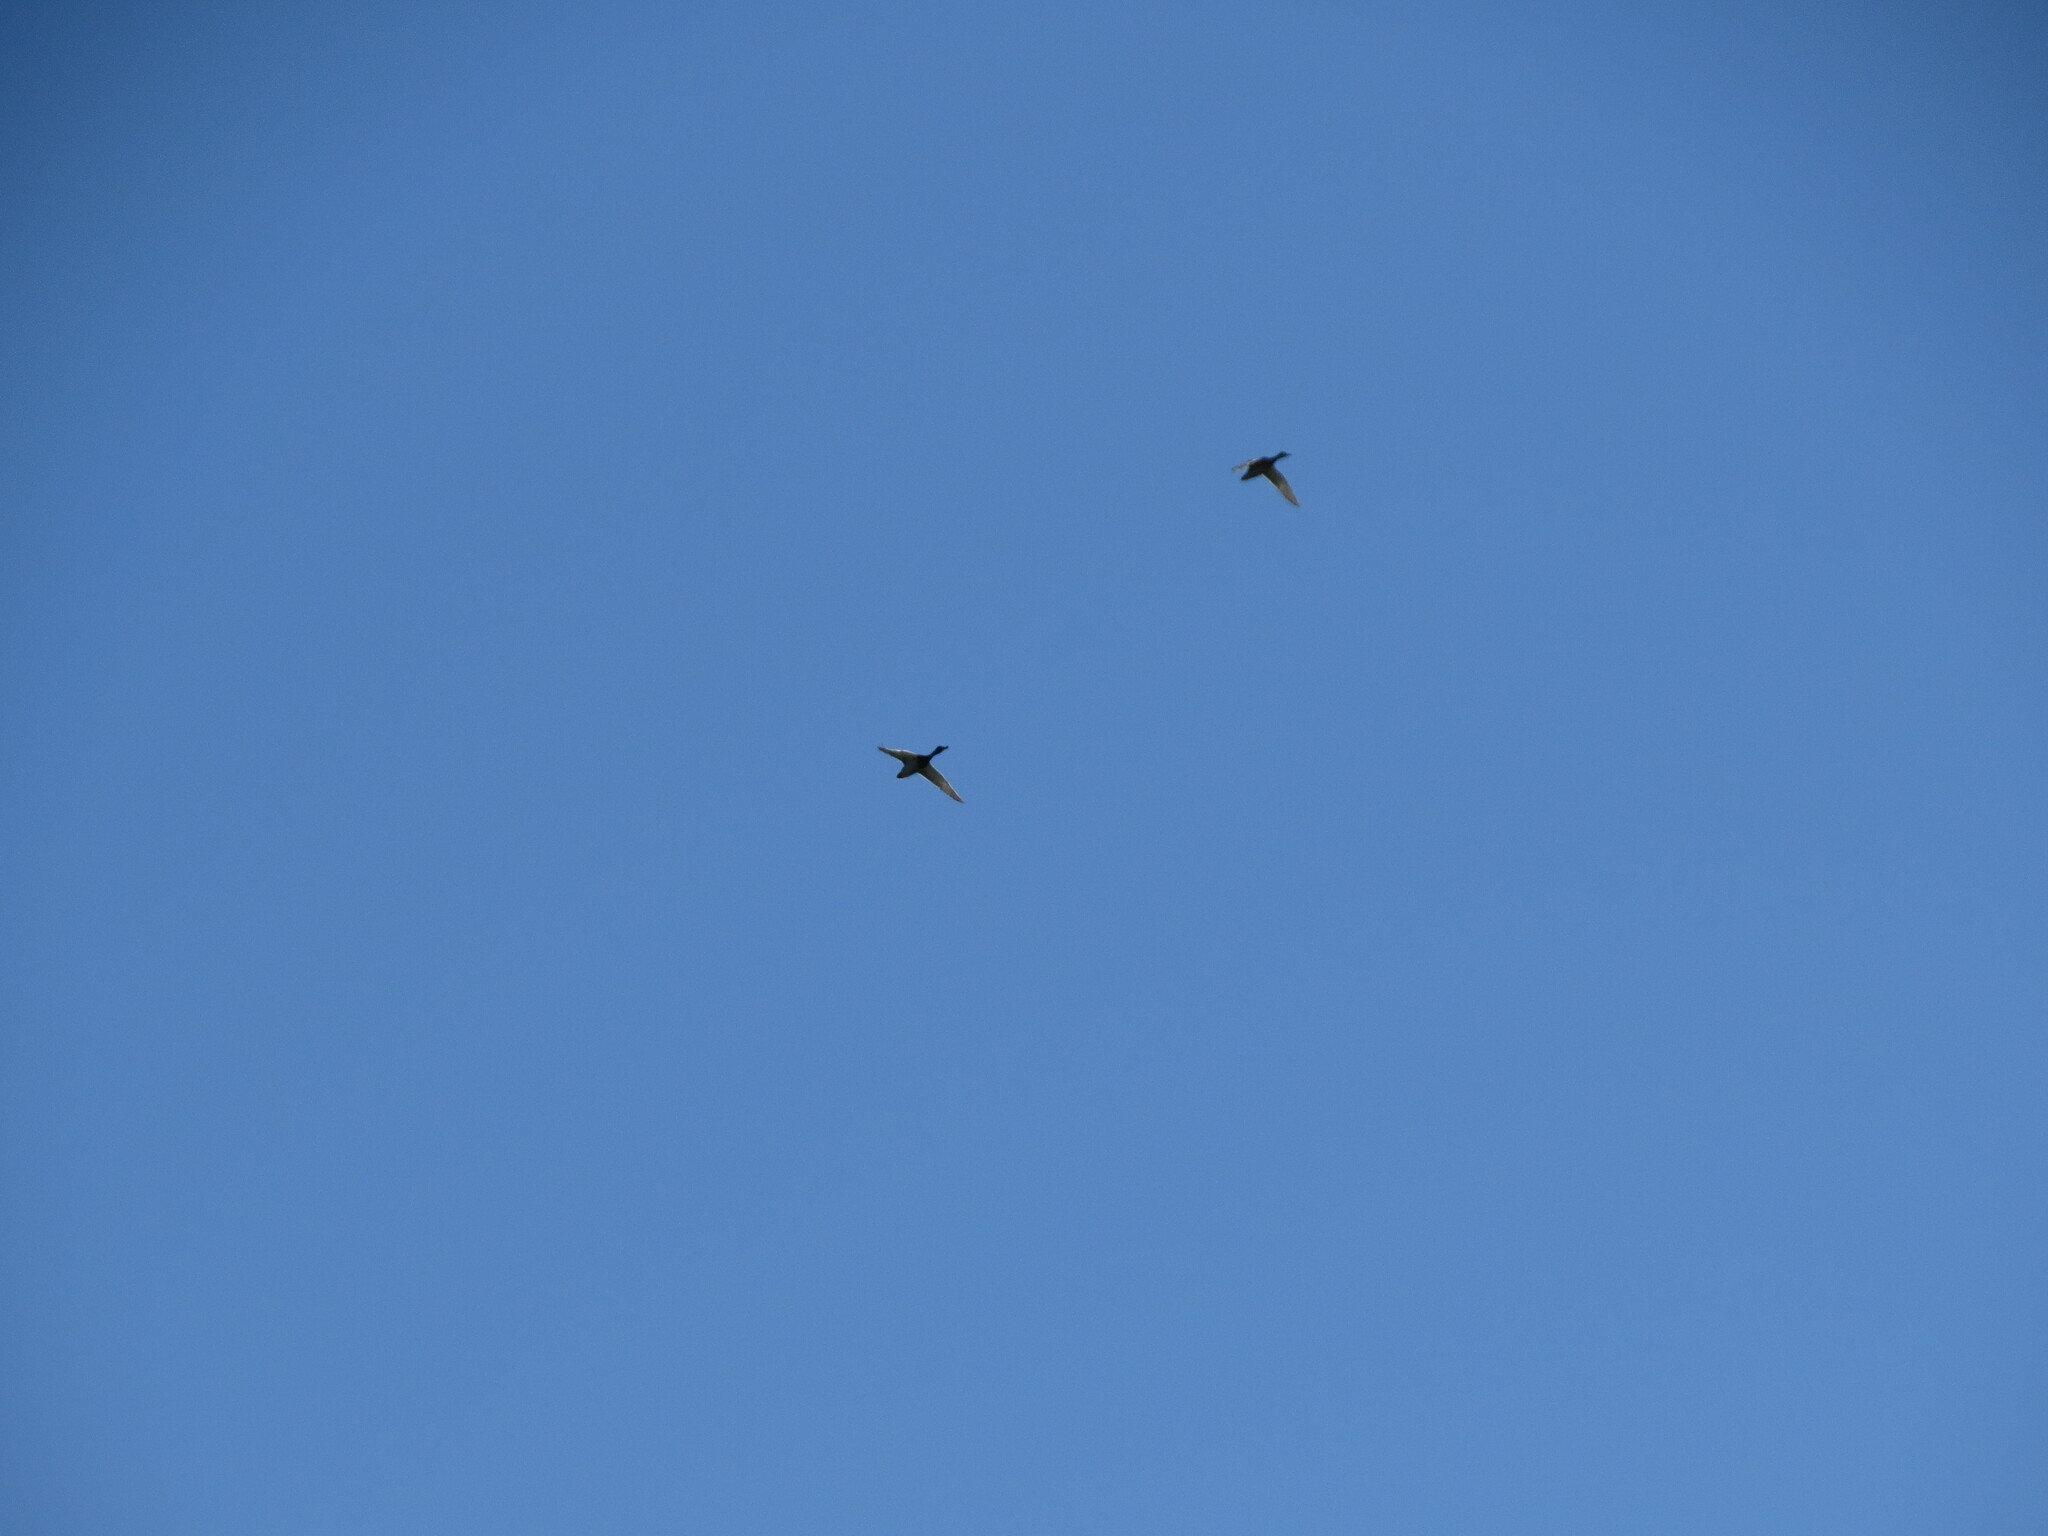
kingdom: Animalia
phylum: Chordata
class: Aves
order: Anseriformes
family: Anatidae
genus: Anas
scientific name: Anas platyrhynchos
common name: Mallard
